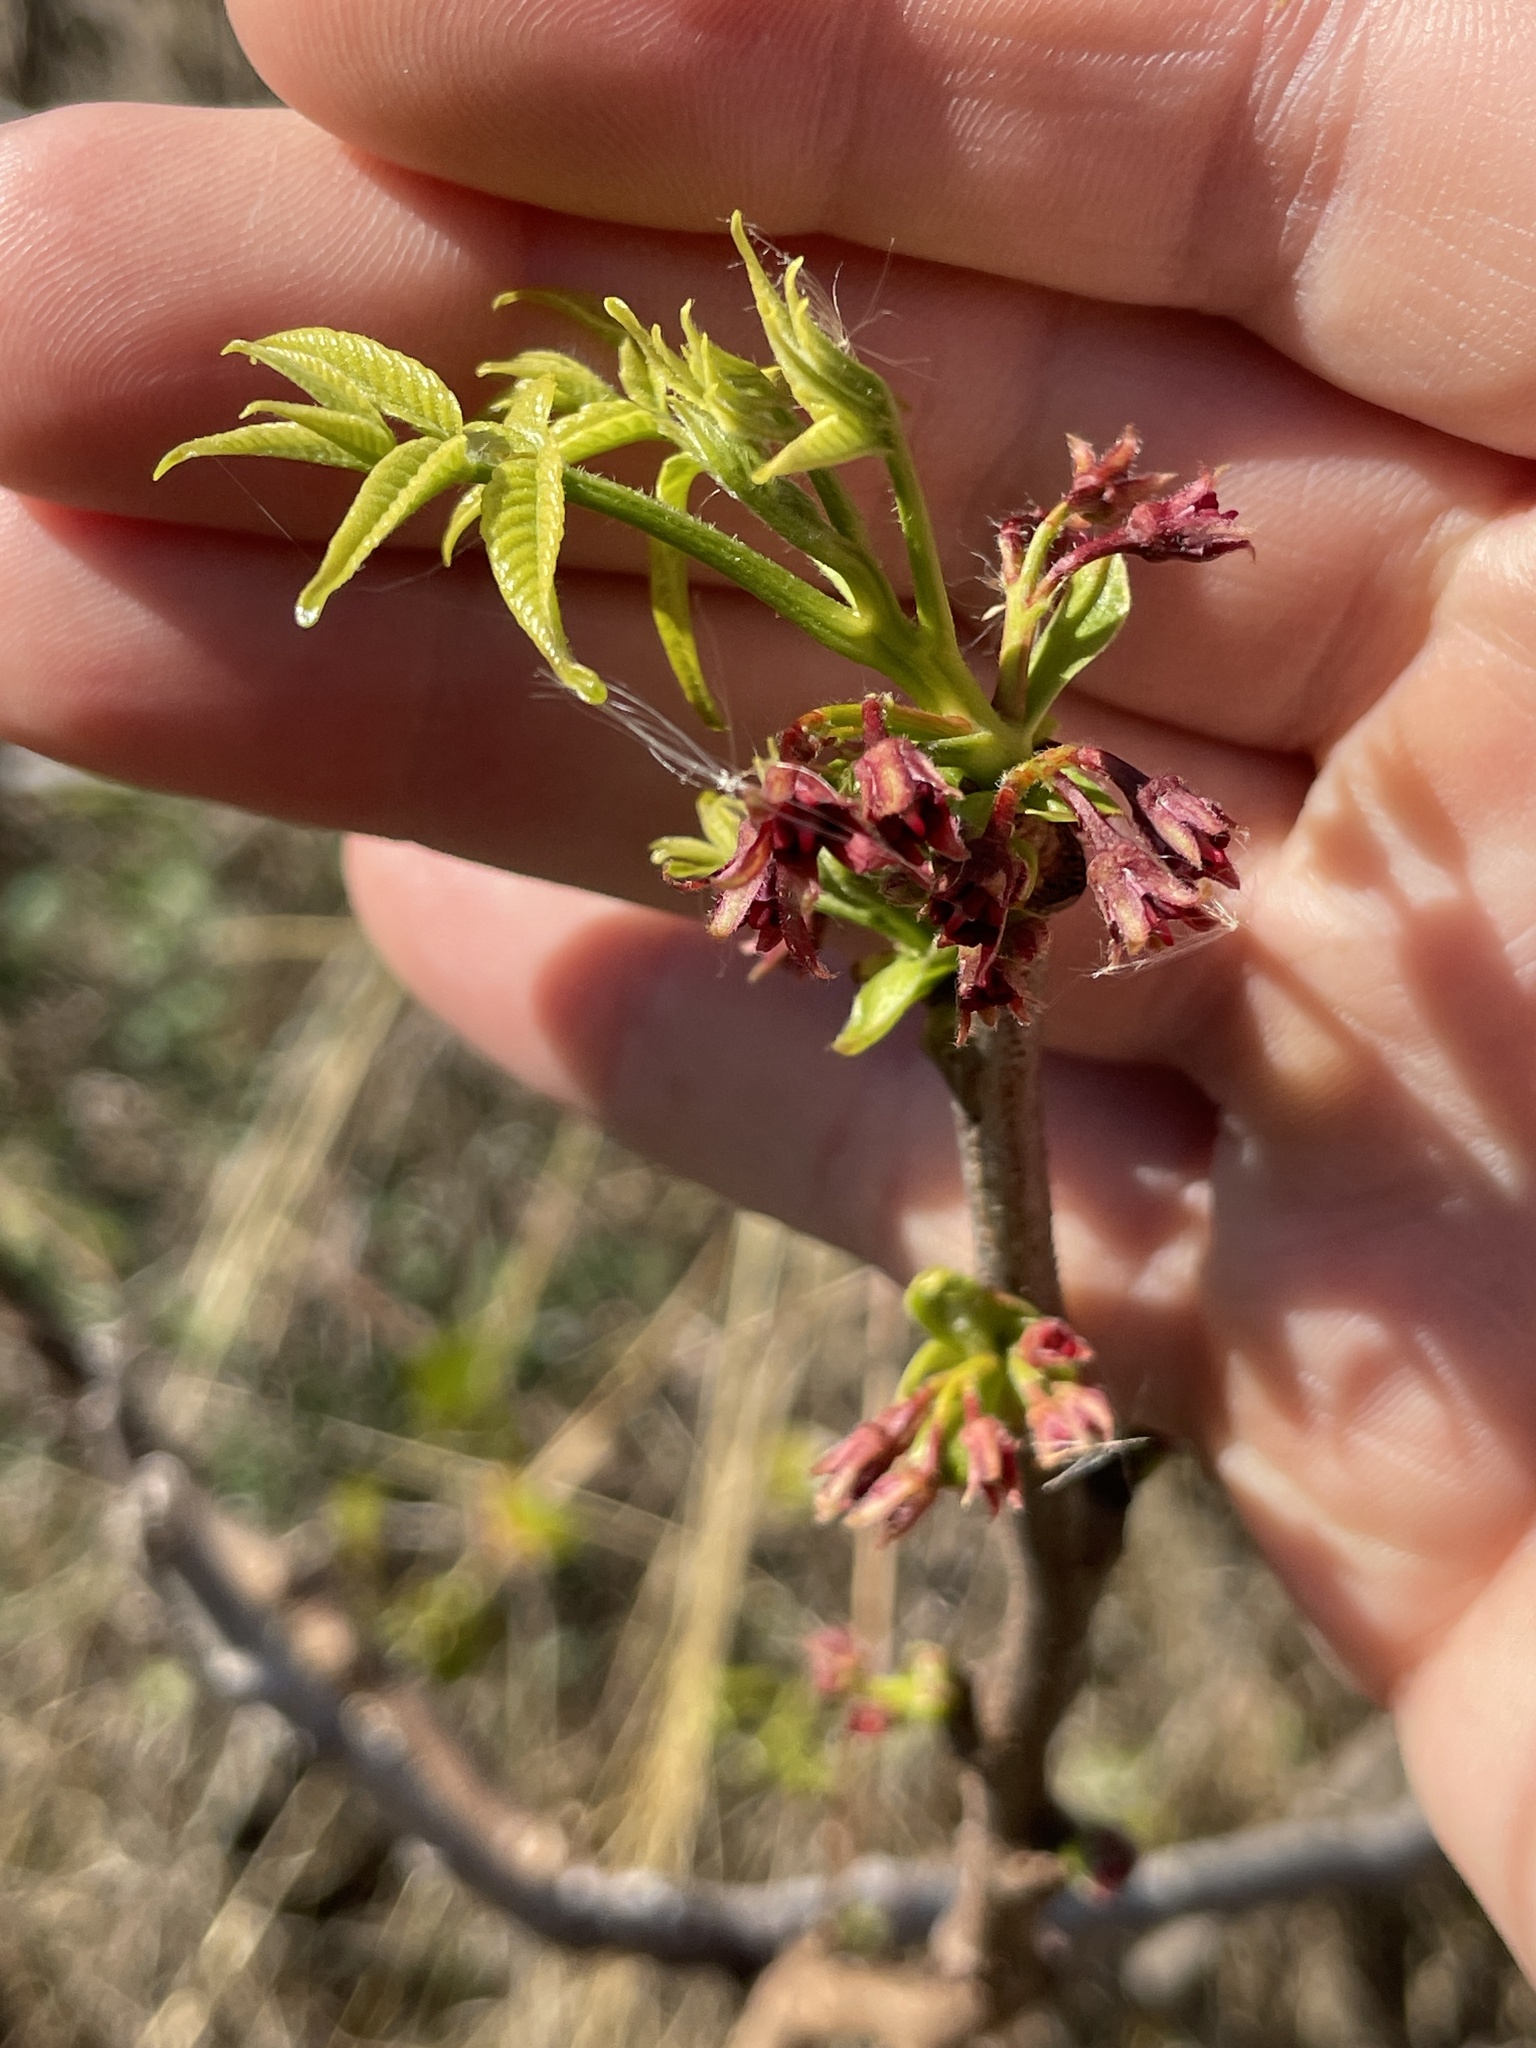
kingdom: Plantae
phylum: Tracheophyta
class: Magnoliopsida
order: Sapindales
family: Sapindaceae
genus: Ungnadia
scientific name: Ungnadia speciosa
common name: Texas-buckeye
